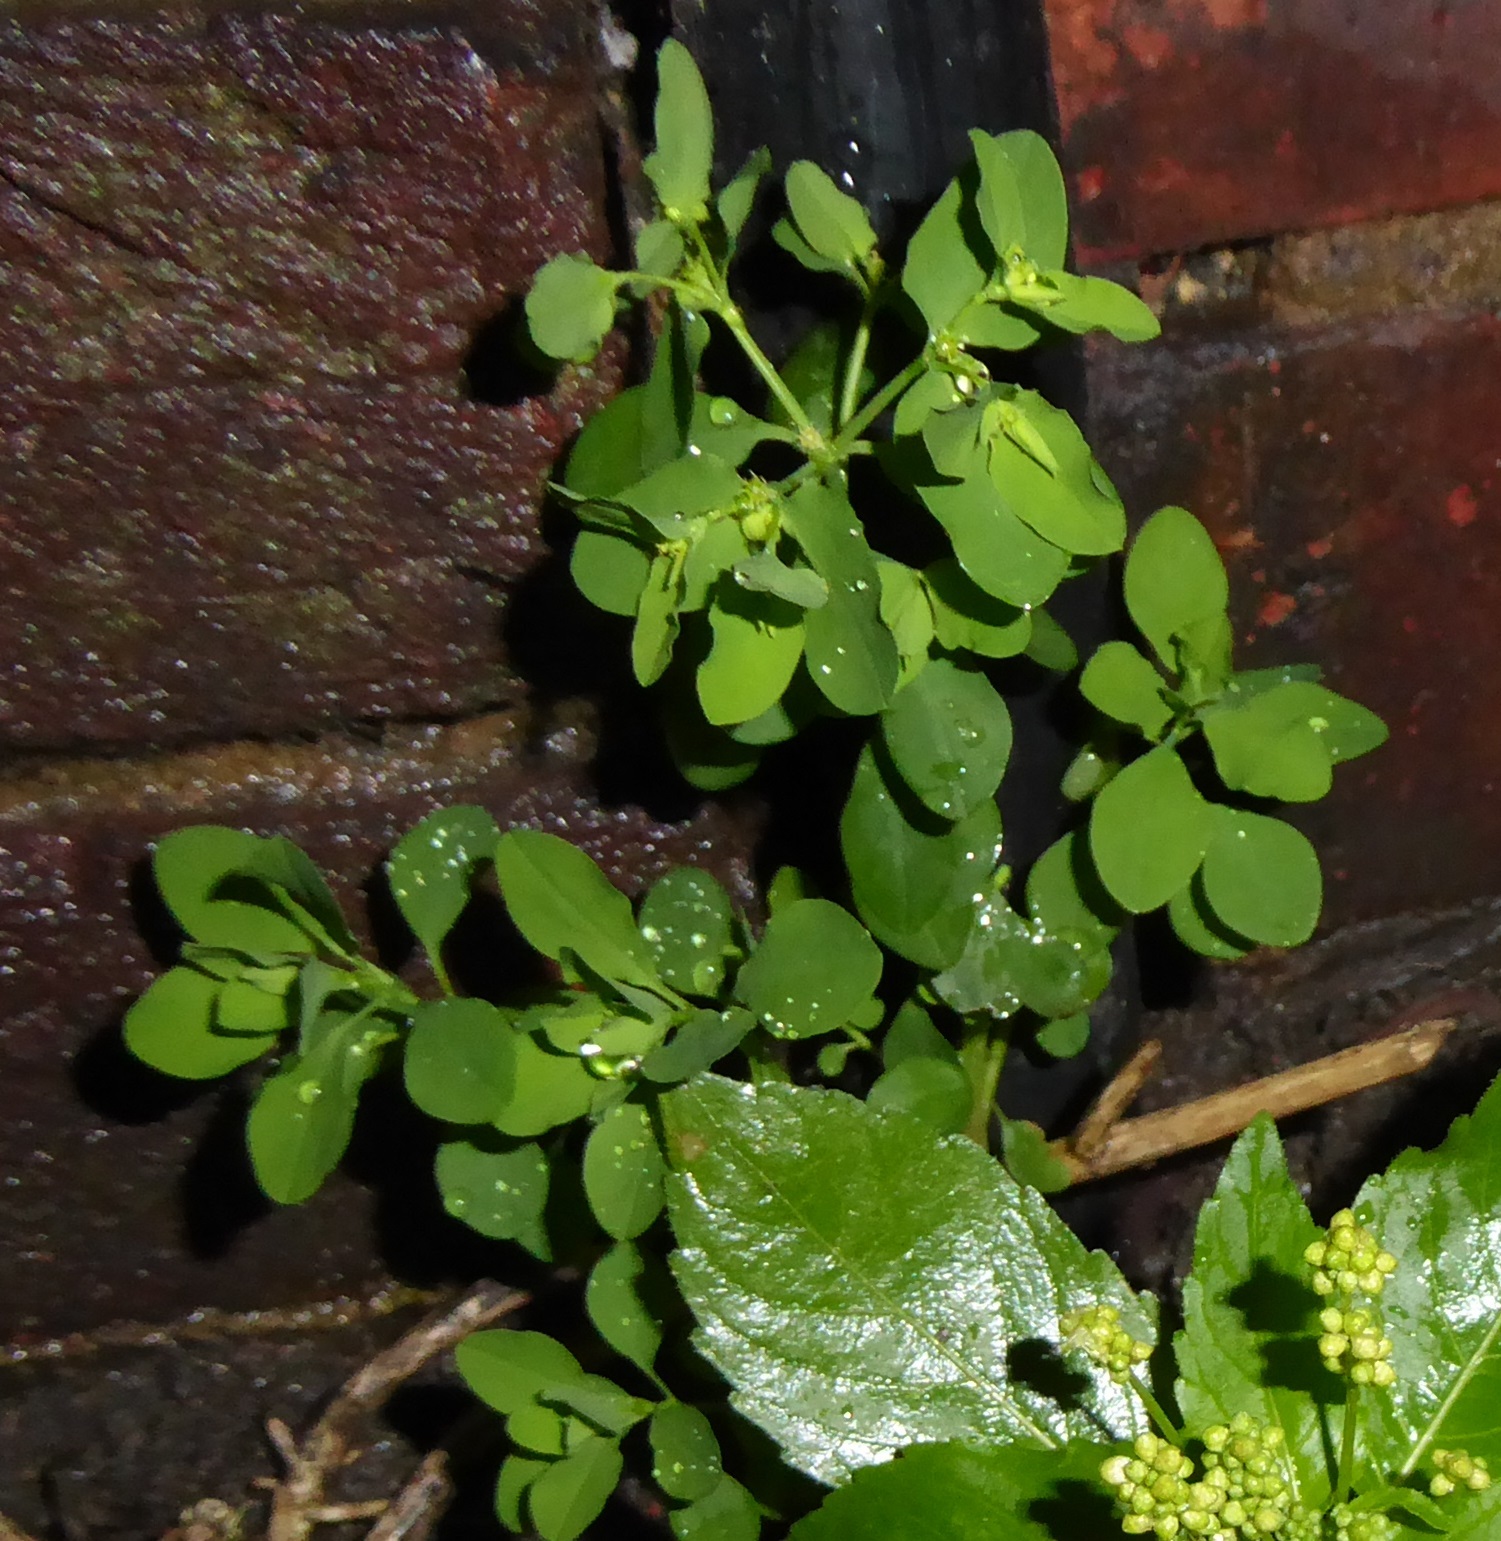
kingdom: Plantae
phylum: Tracheophyta
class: Magnoliopsida
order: Malpighiales
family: Euphorbiaceae
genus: Euphorbia
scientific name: Euphorbia peplus
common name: Petty spurge
